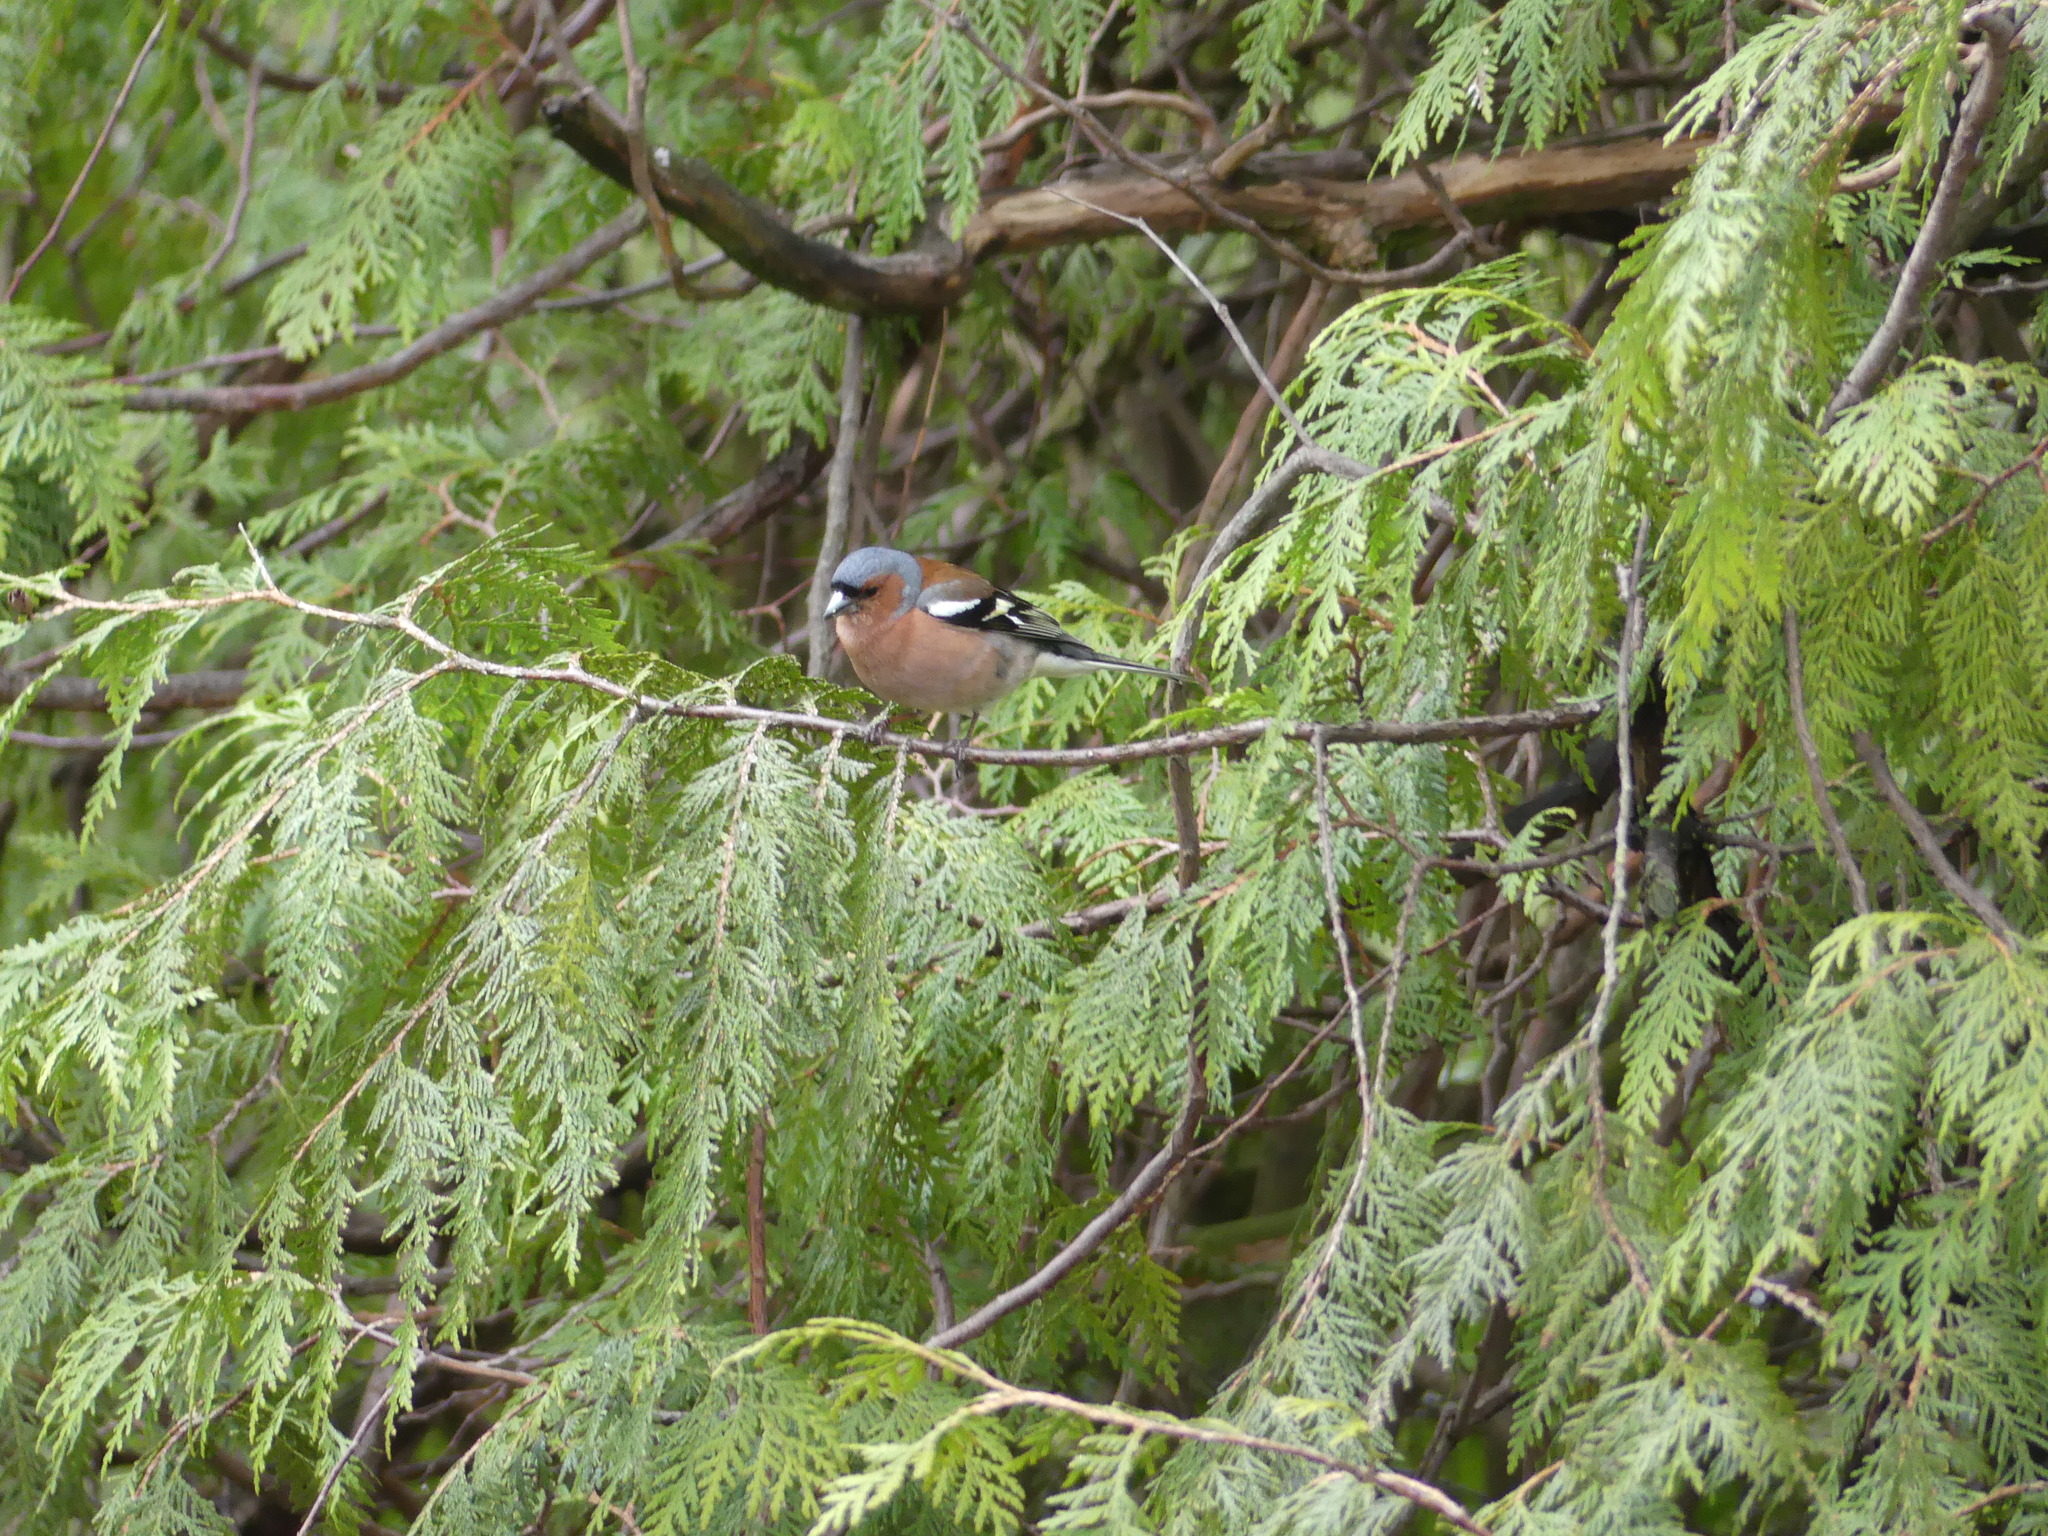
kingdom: Animalia
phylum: Chordata
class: Aves
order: Passeriformes
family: Fringillidae
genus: Fringilla
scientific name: Fringilla coelebs
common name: Common chaffinch
